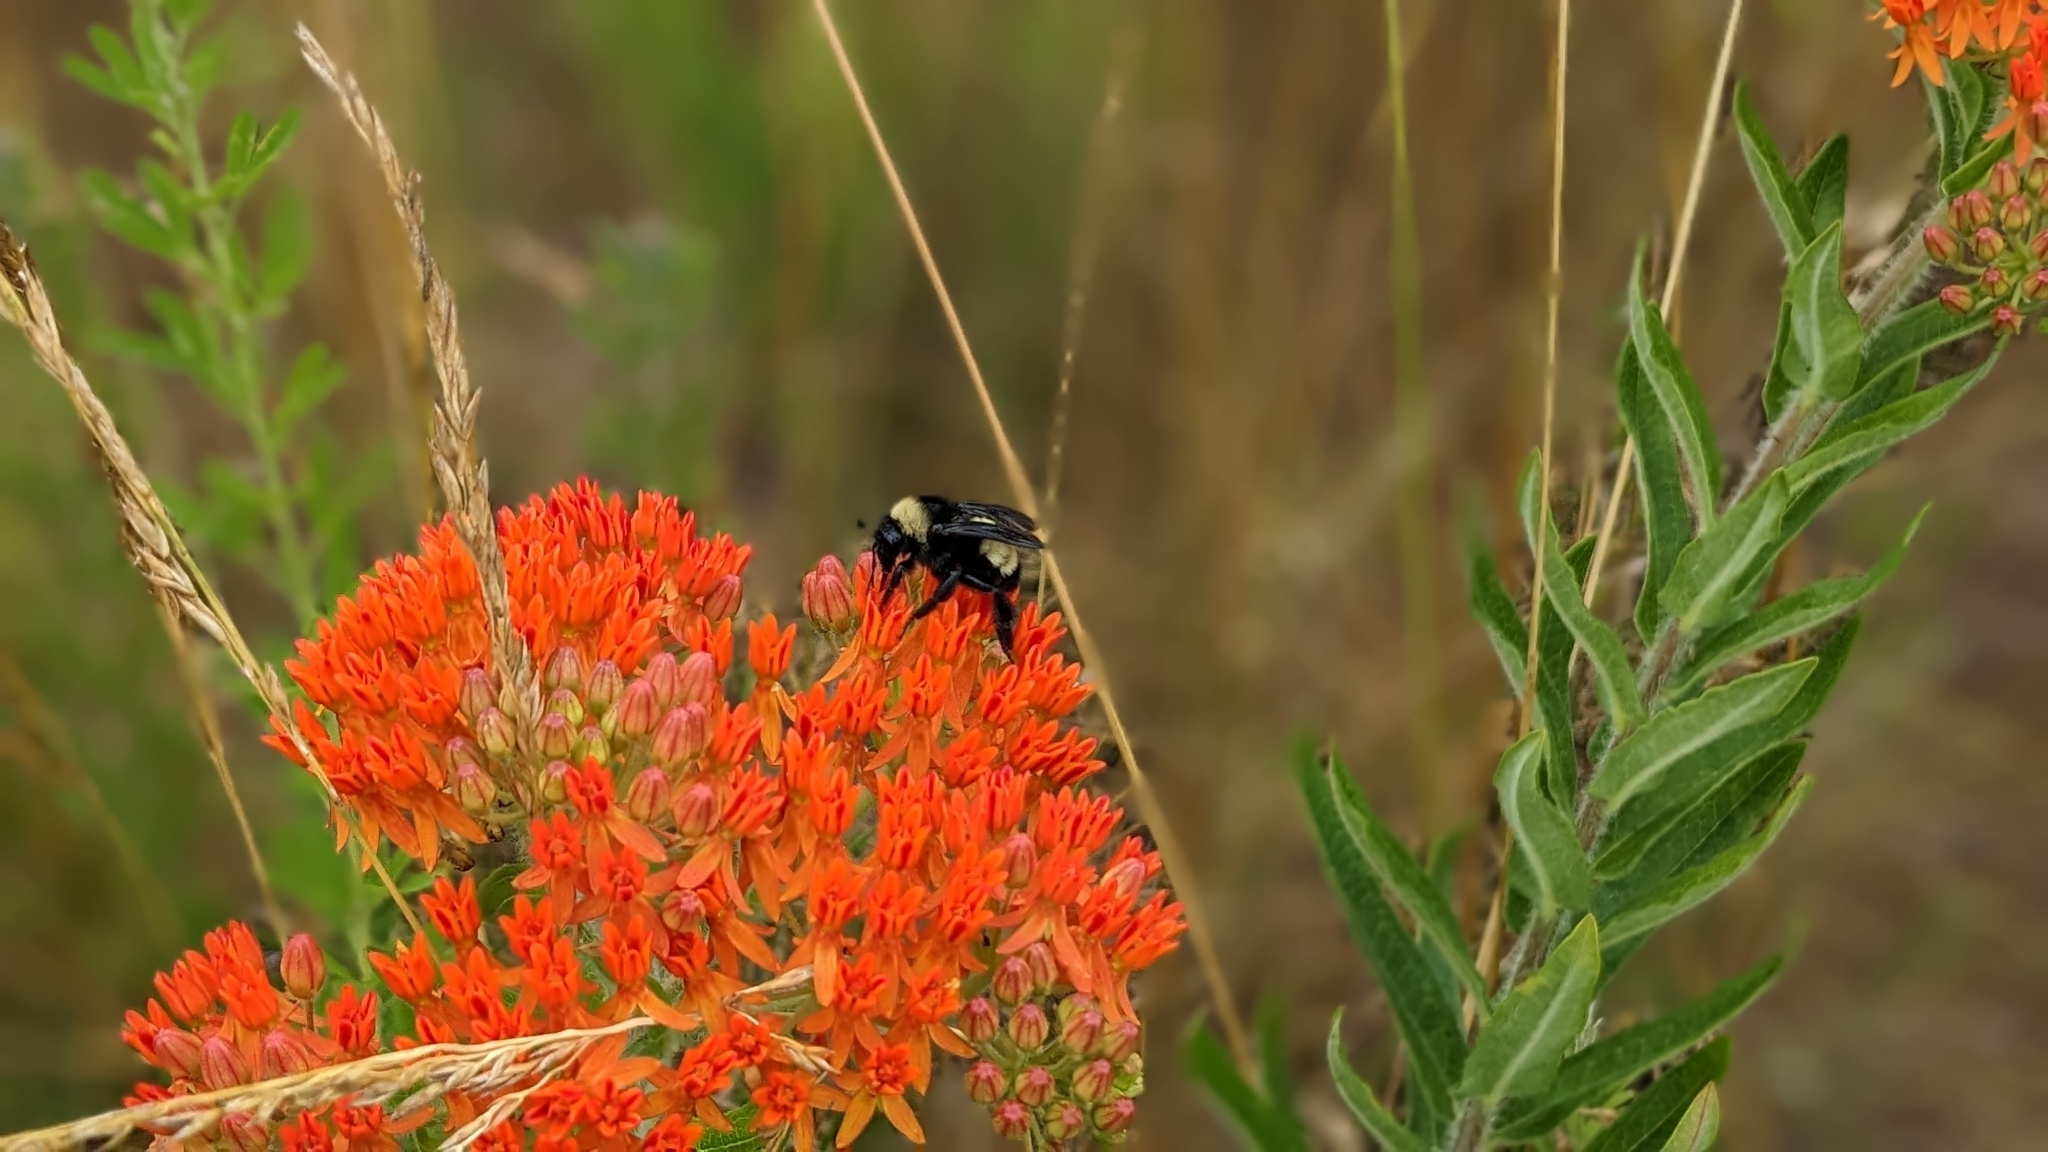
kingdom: Animalia
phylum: Arthropoda
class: Insecta
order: Hymenoptera
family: Apidae
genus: Bombus
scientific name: Bombus pensylvanicus
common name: Bumble bee
